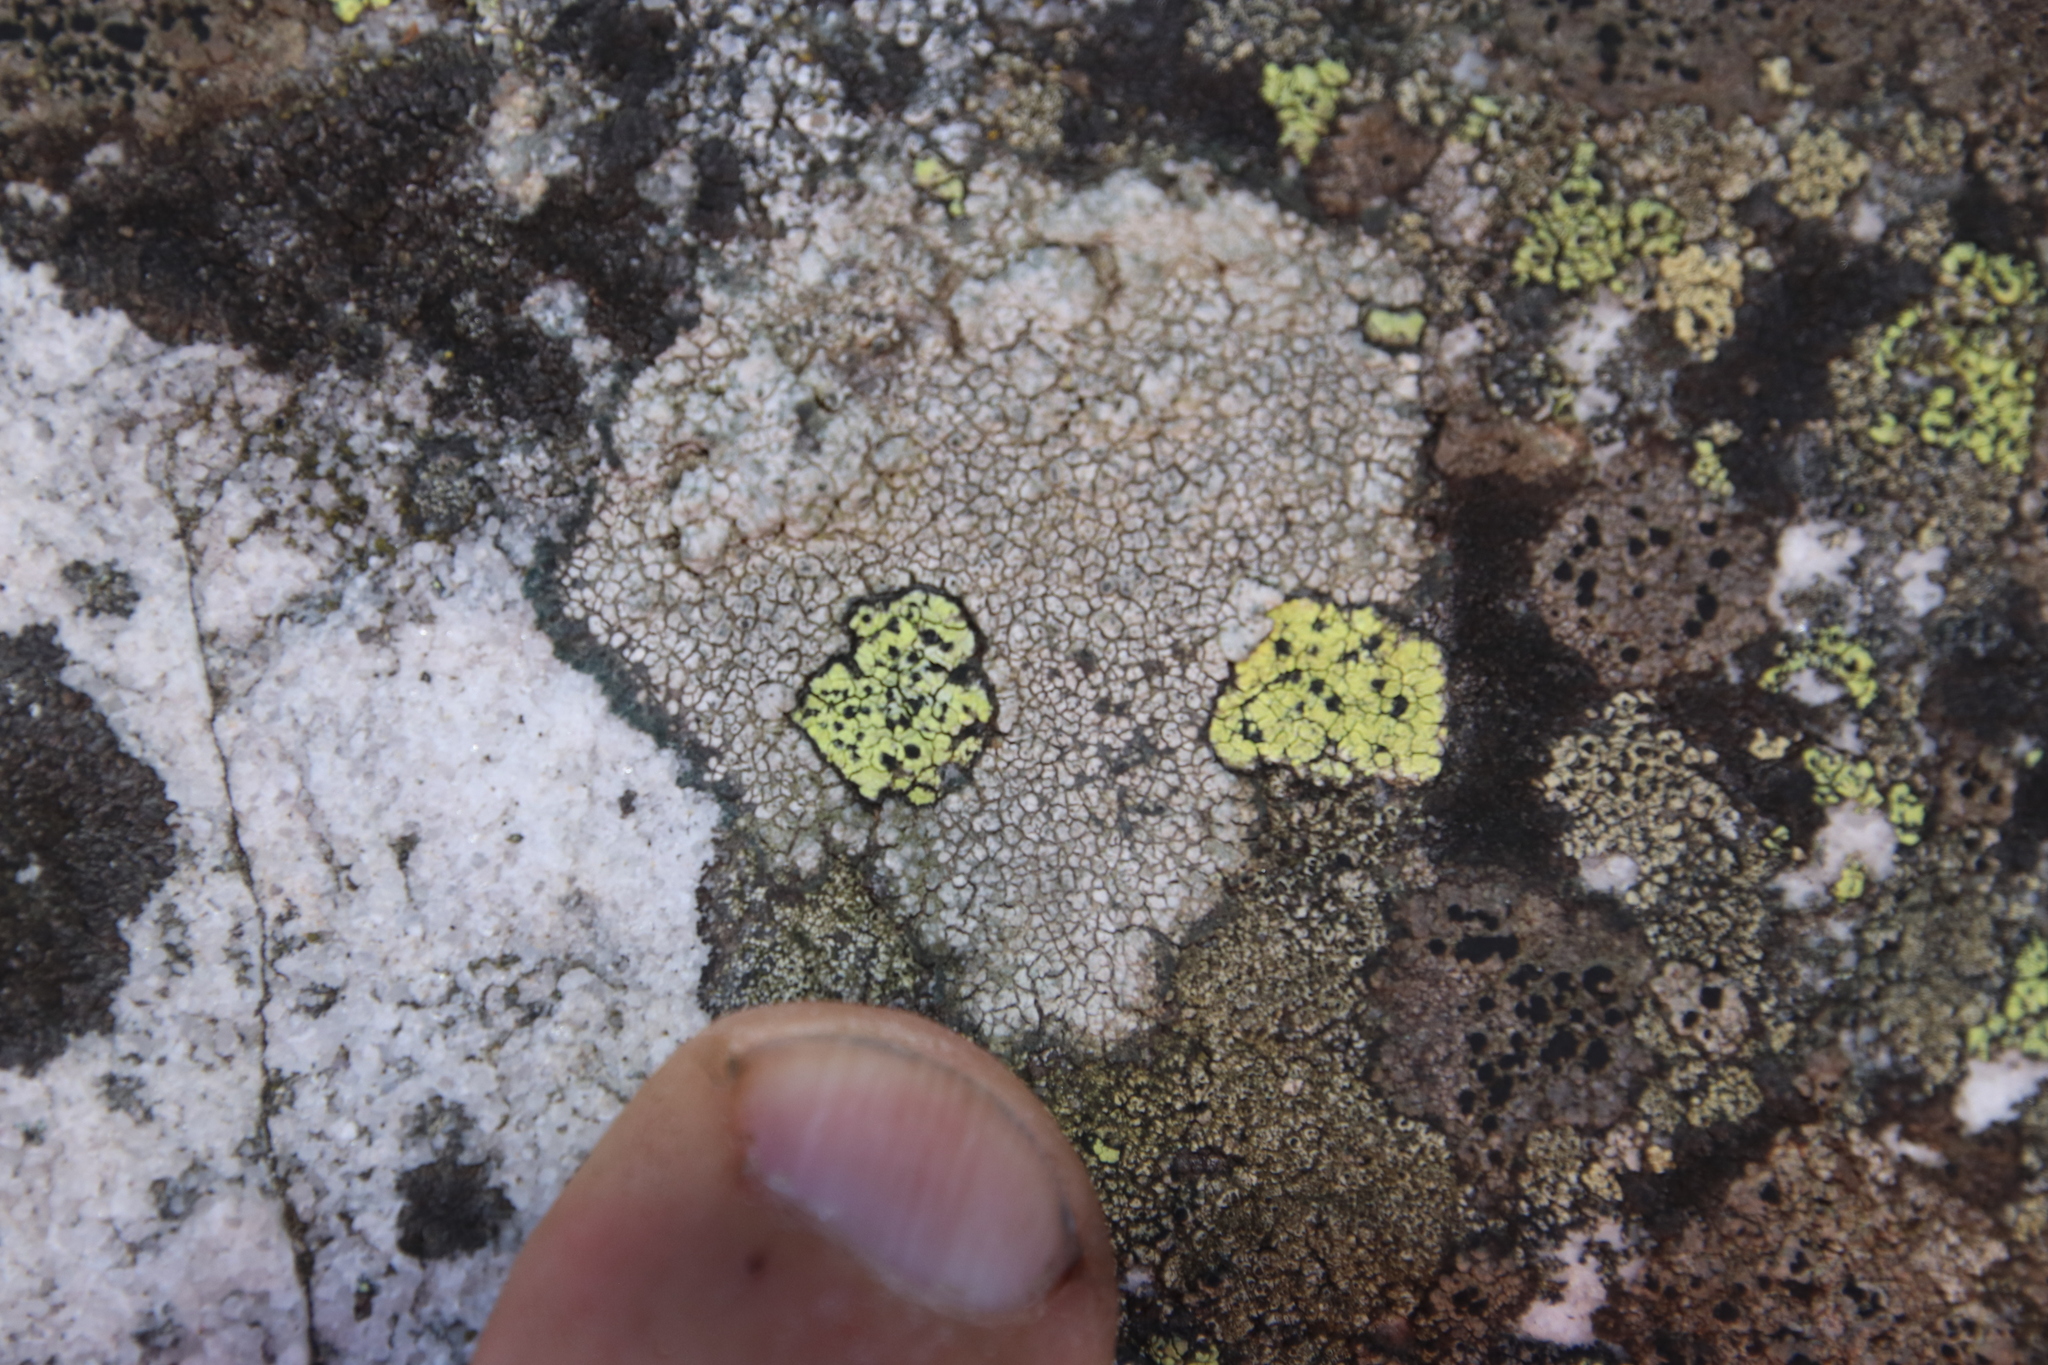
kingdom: Fungi
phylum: Ascomycota
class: Lecanoromycetes
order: Rhizocarpales
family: Rhizocarpaceae
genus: Rhizocarpon
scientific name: Rhizocarpon viridiatrum
